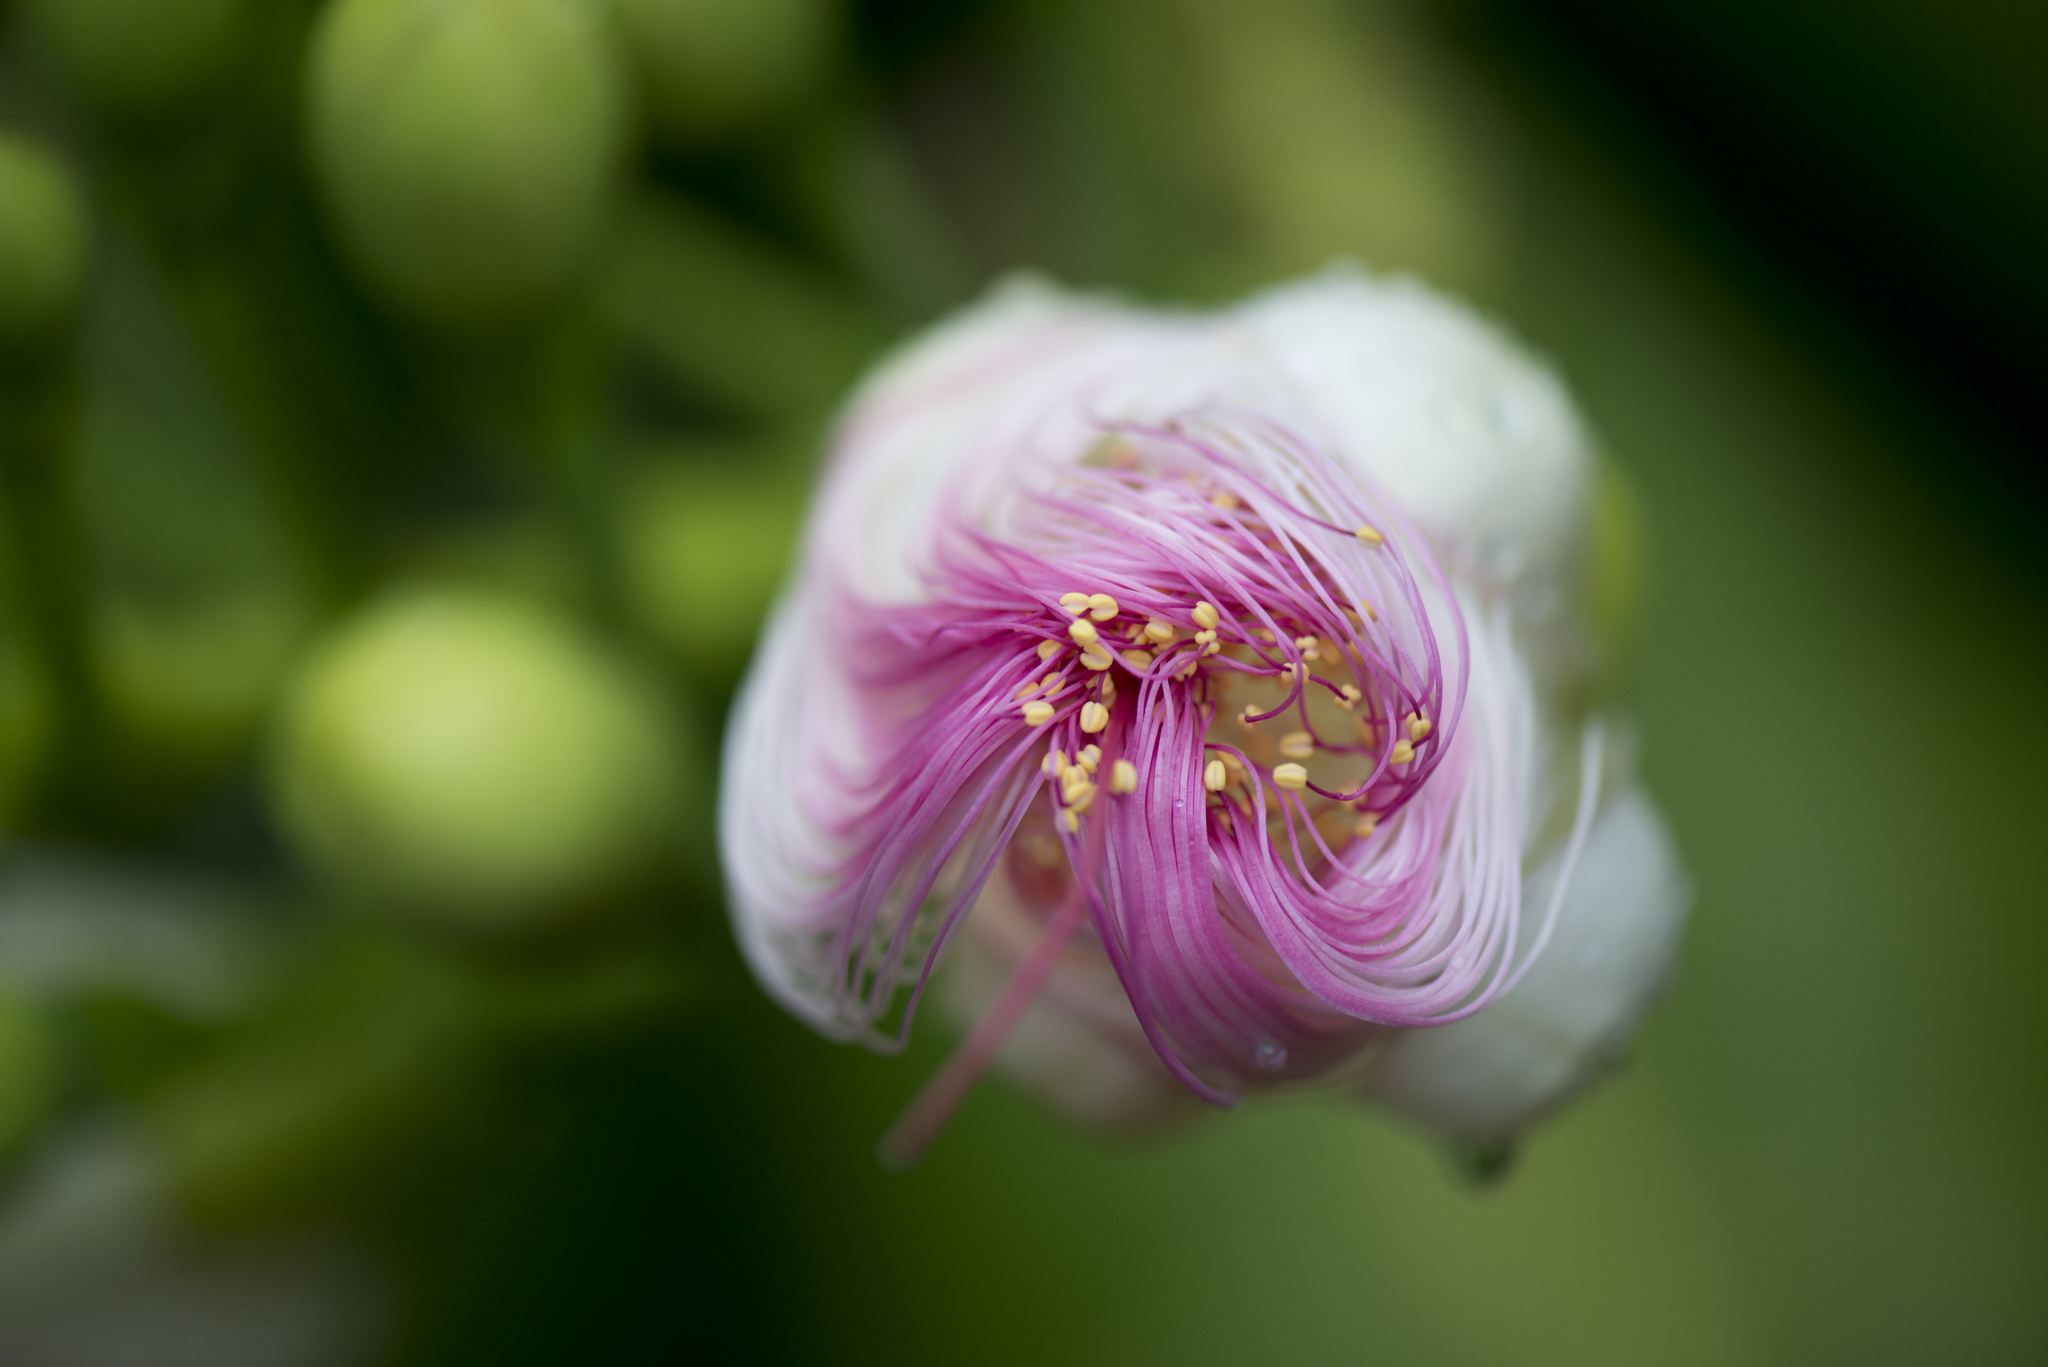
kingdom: Plantae
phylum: Tracheophyta
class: Magnoliopsida
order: Ericales
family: Lecythidaceae
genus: Barringtonia
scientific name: Barringtonia asiatica
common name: Mango-pine
